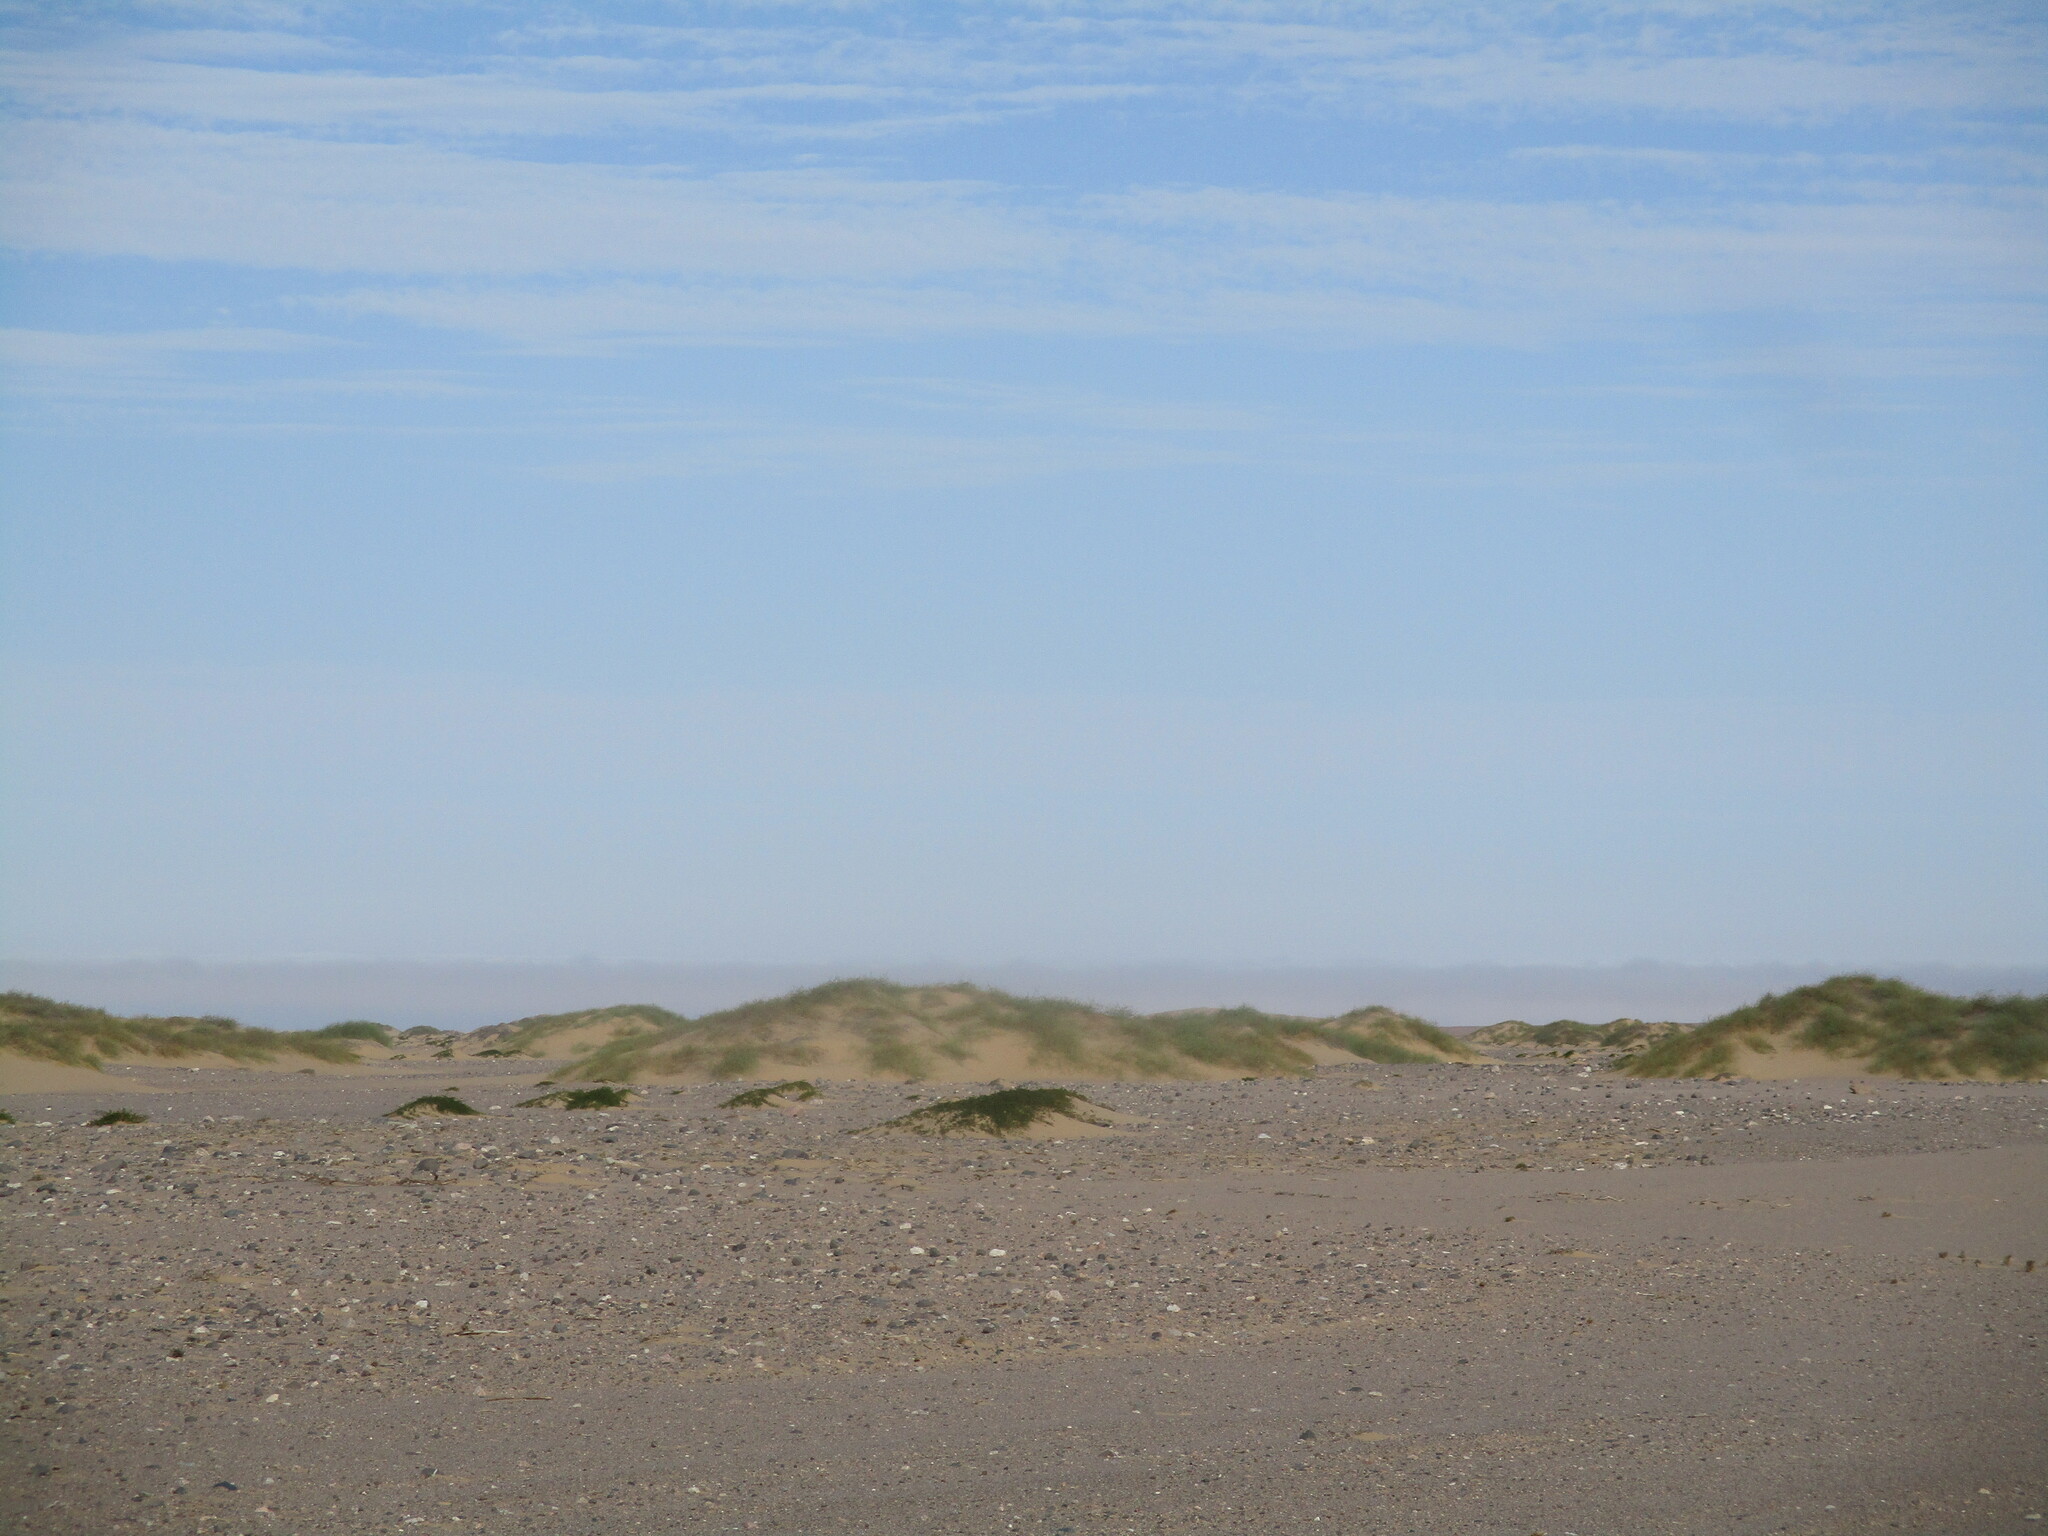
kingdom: Plantae
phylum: Tracheophyta
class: Magnoliopsida
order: Cucurbitales
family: Cucurbitaceae
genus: Acanthosicyos
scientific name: Acanthosicyos horridus
